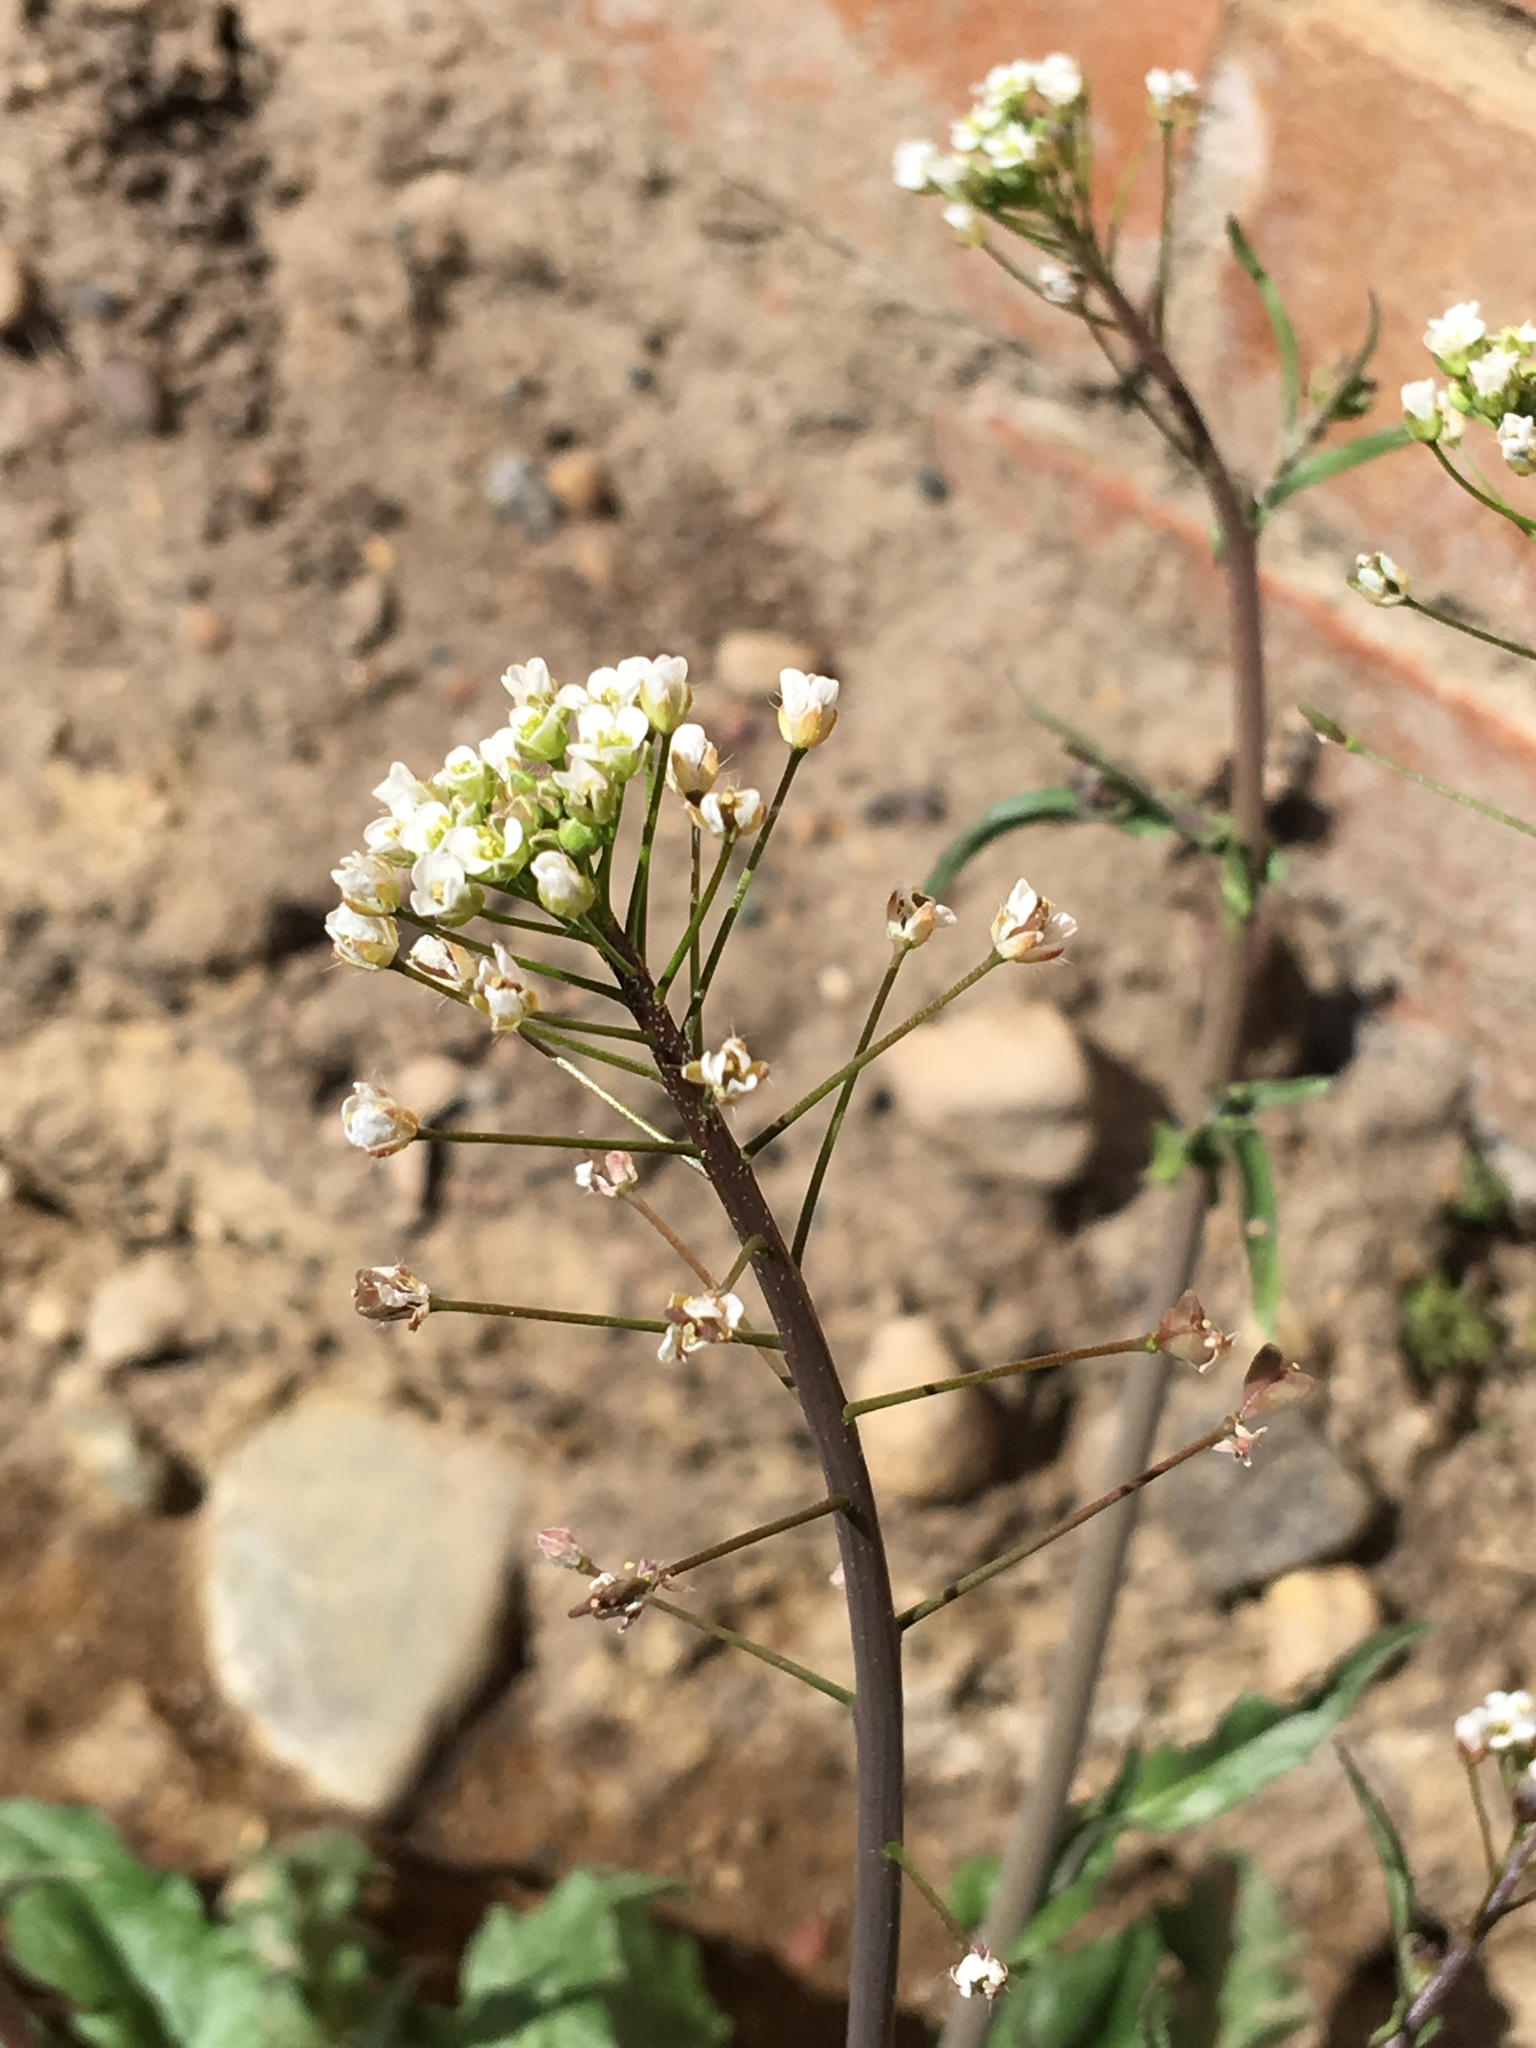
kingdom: Plantae
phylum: Tracheophyta
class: Magnoliopsida
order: Brassicales
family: Brassicaceae
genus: Capsella
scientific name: Capsella bursa-pastoris
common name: Shepherd's purse
